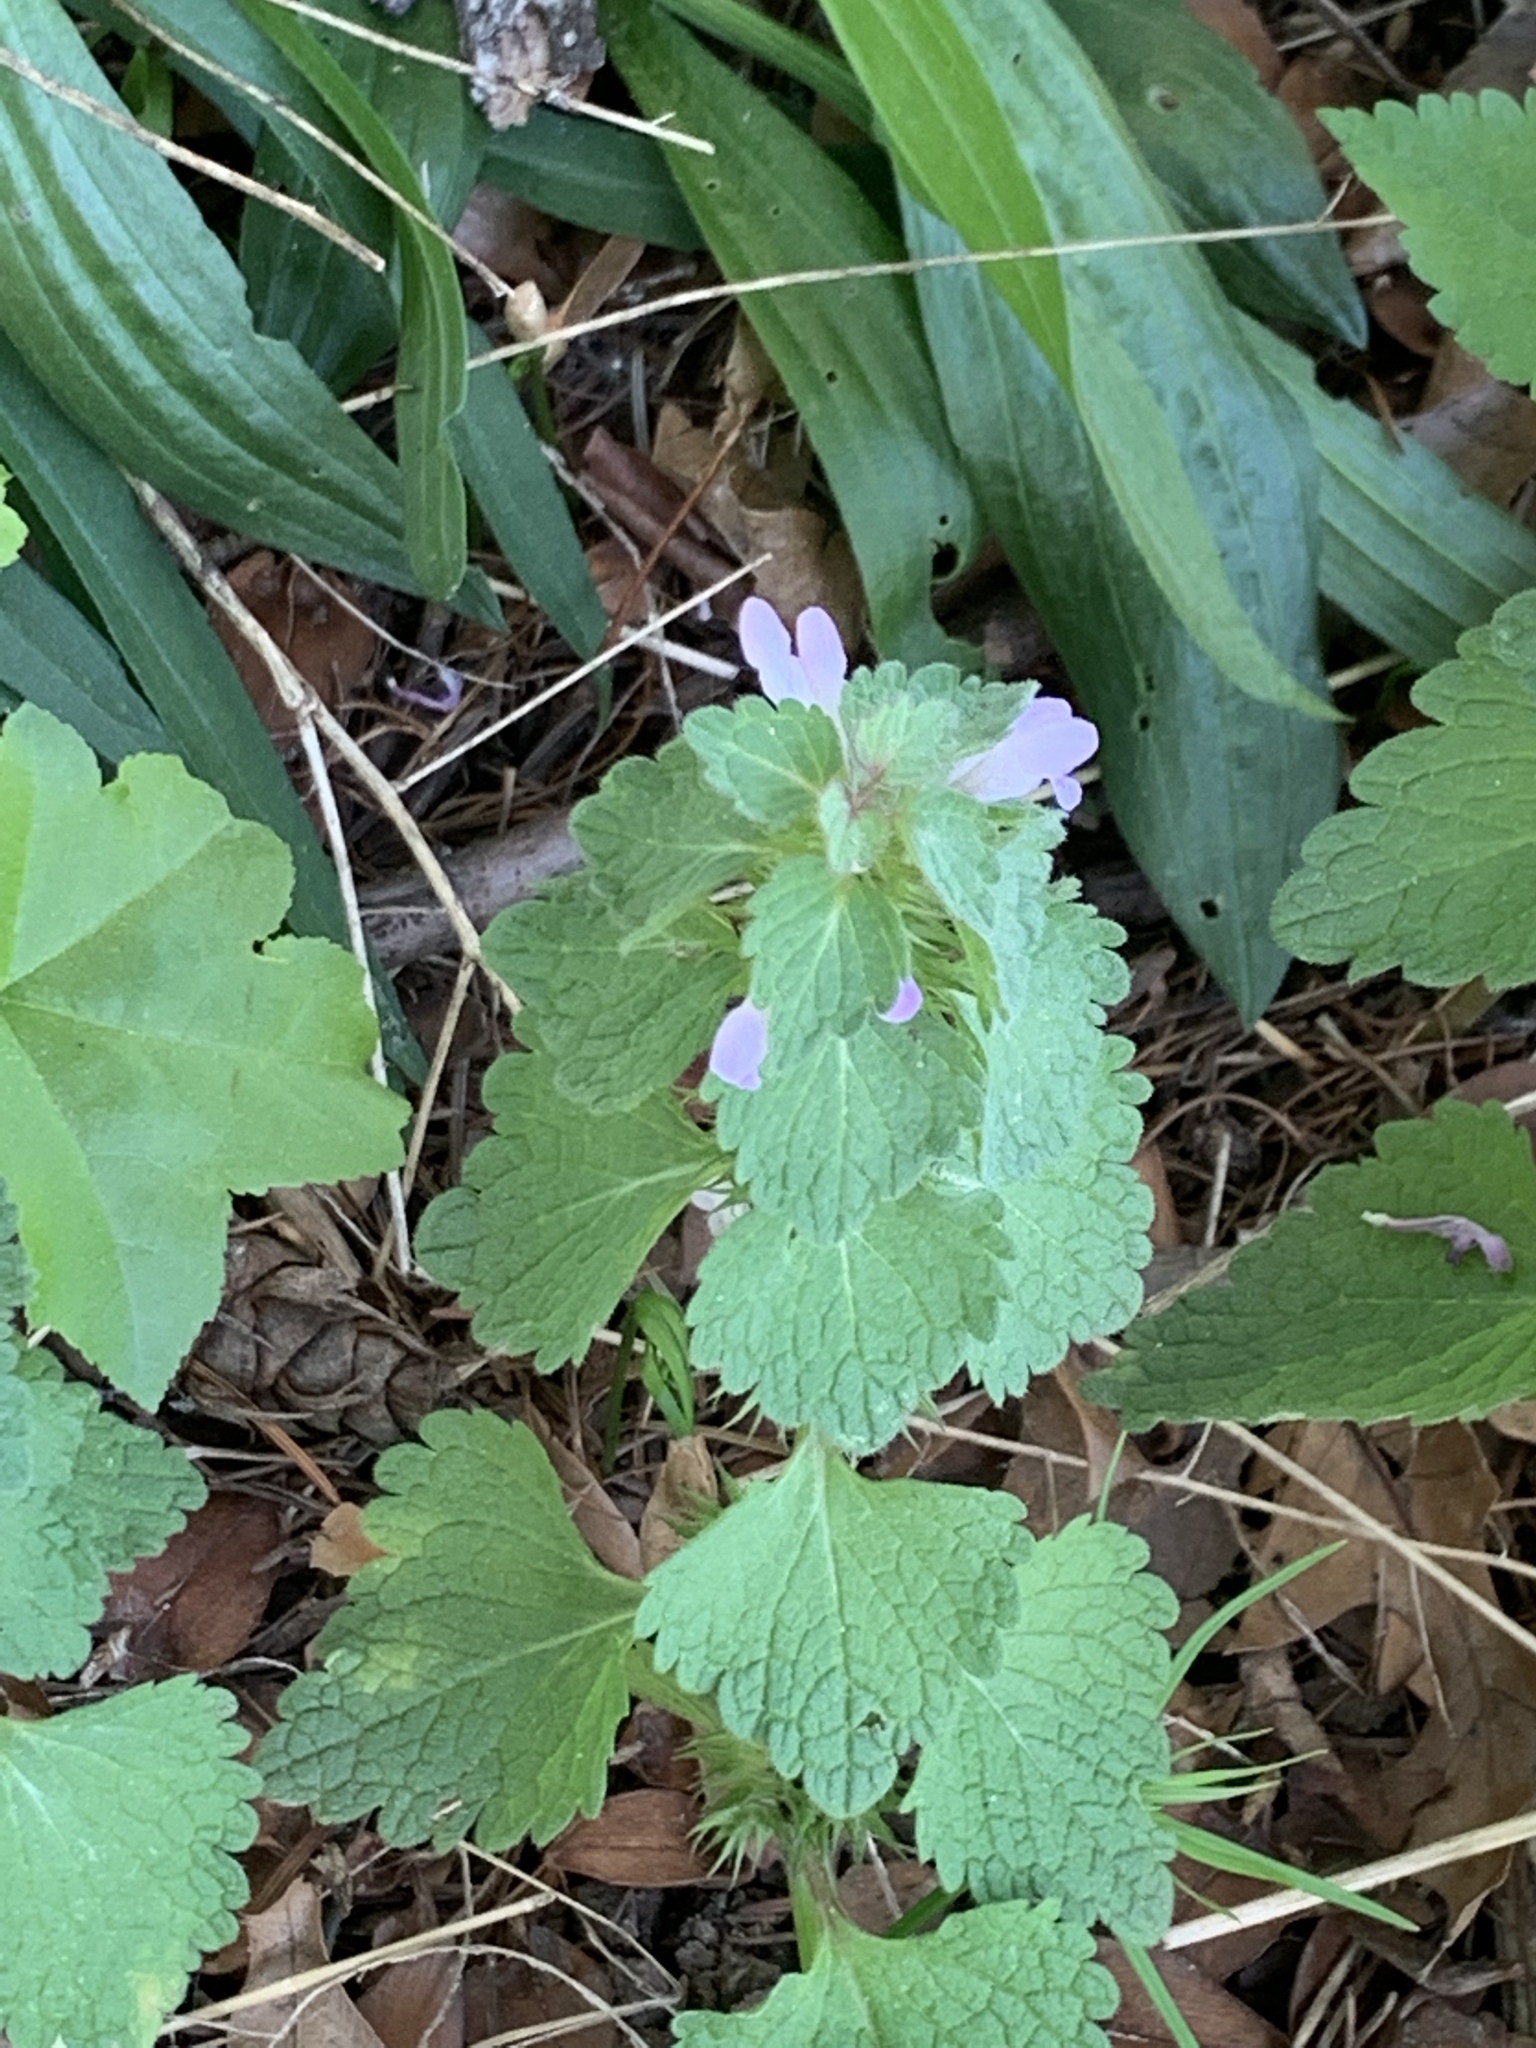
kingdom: Plantae
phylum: Tracheophyta
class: Magnoliopsida
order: Lamiales
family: Lamiaceae
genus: Lamium
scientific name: Lamium purpureum
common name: Red dead-nettle
